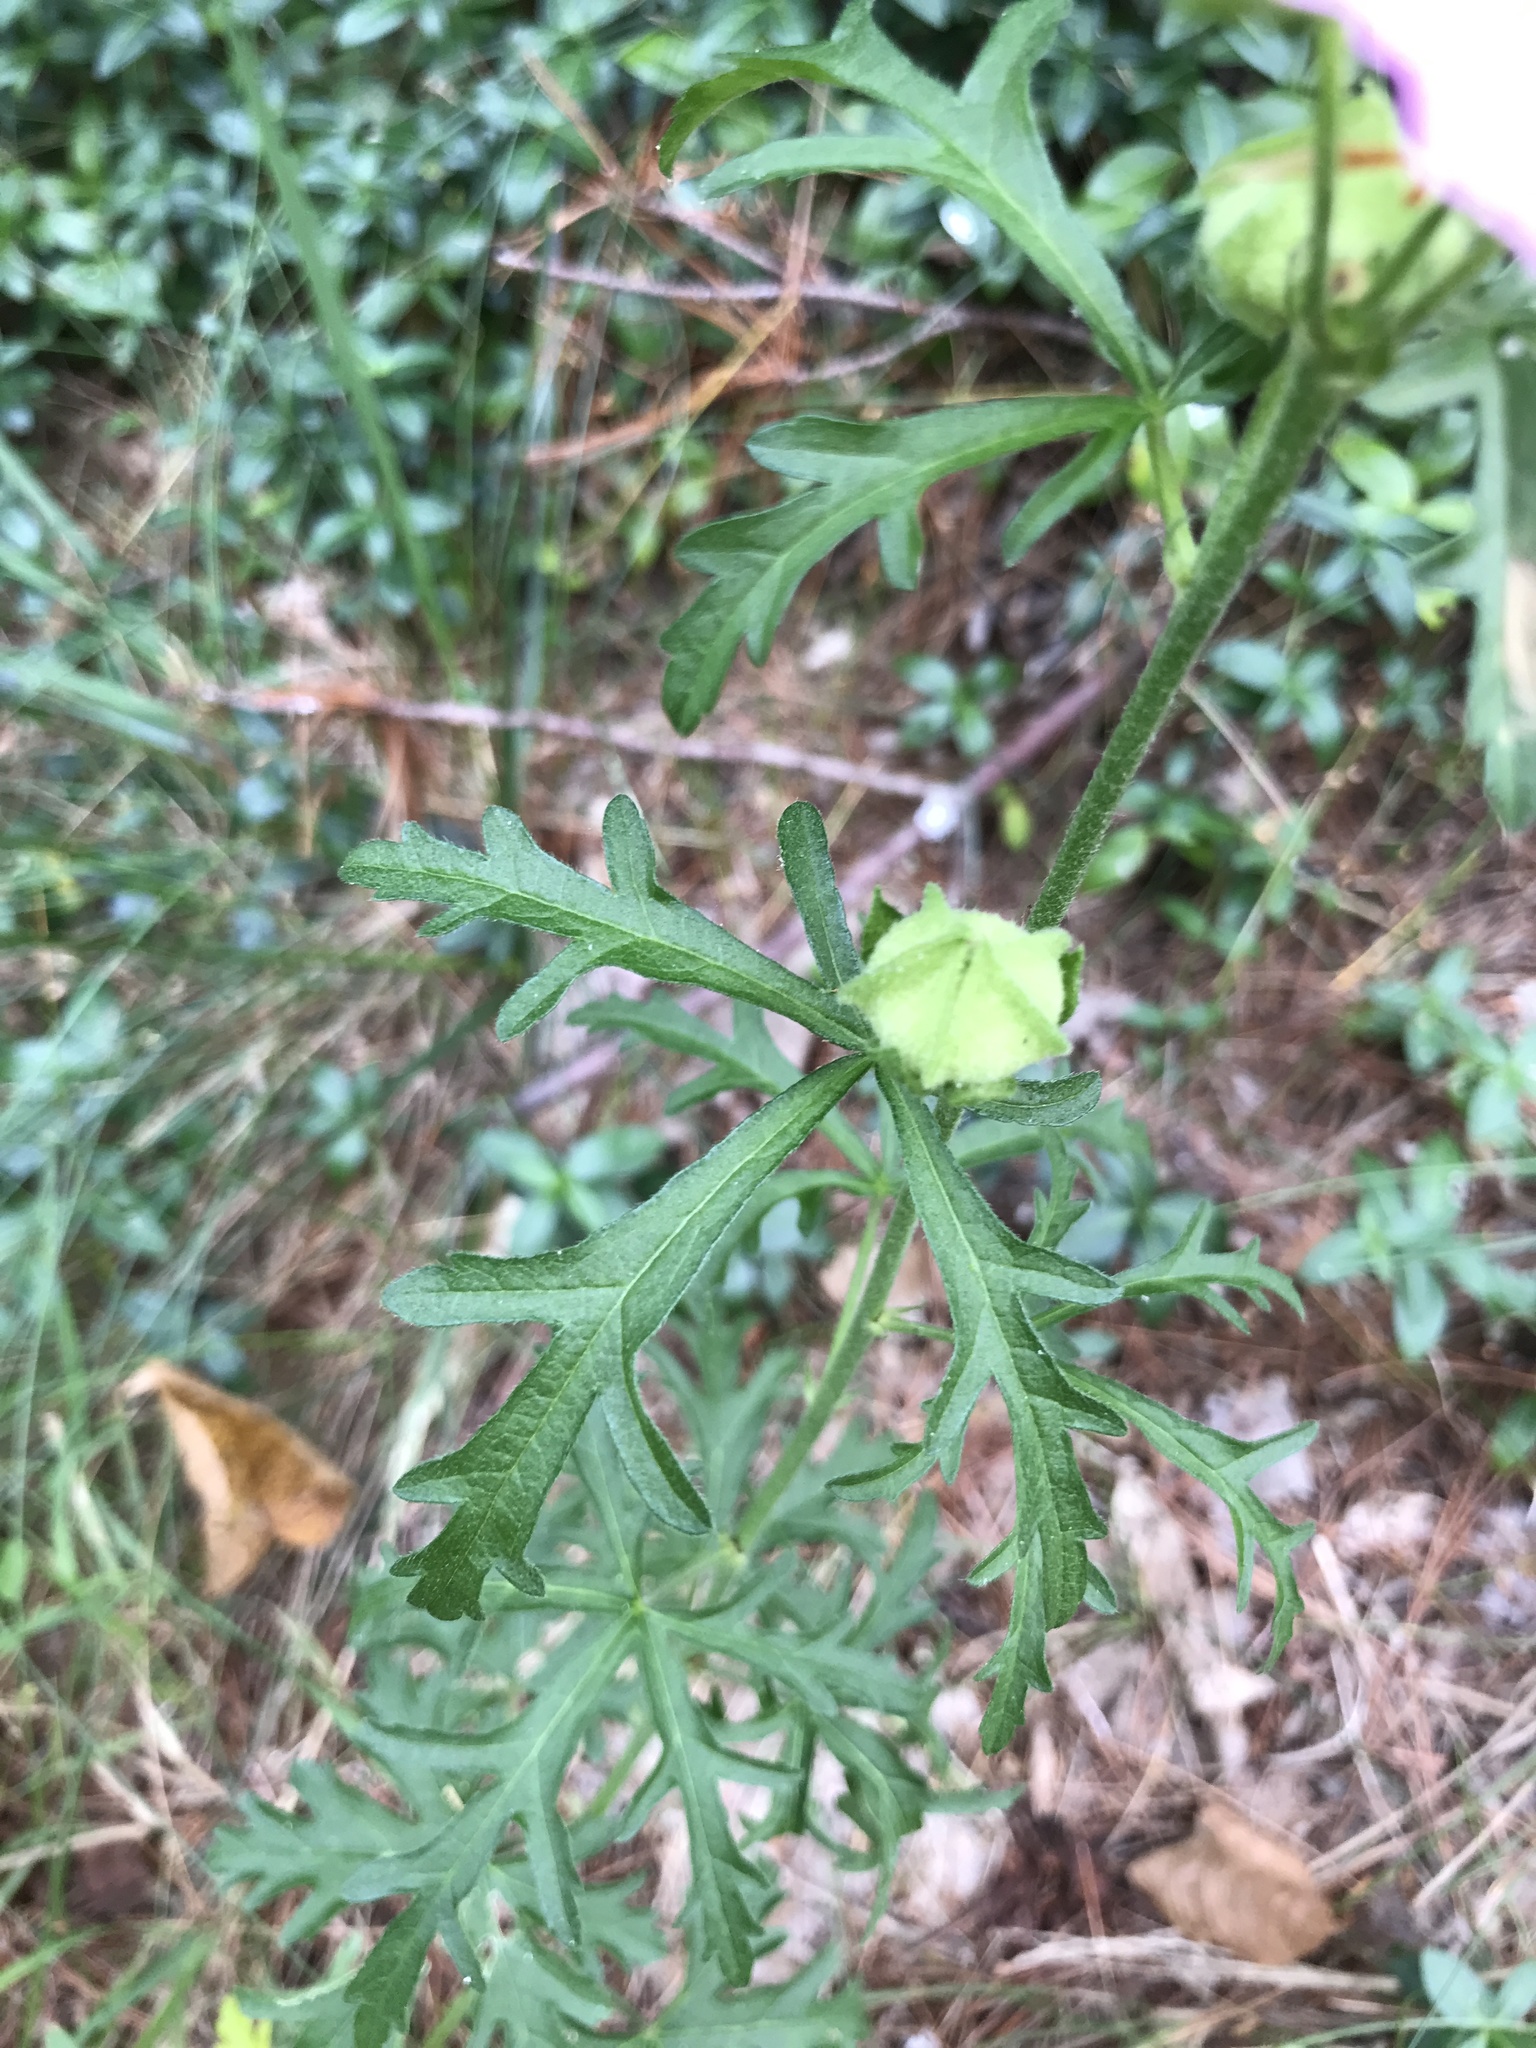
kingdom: Plantae
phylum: Tracheophyta
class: Magnoliopsida
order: Malvales
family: Malvaceae
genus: Malva
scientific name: Malva moschata
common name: Musk mallow
